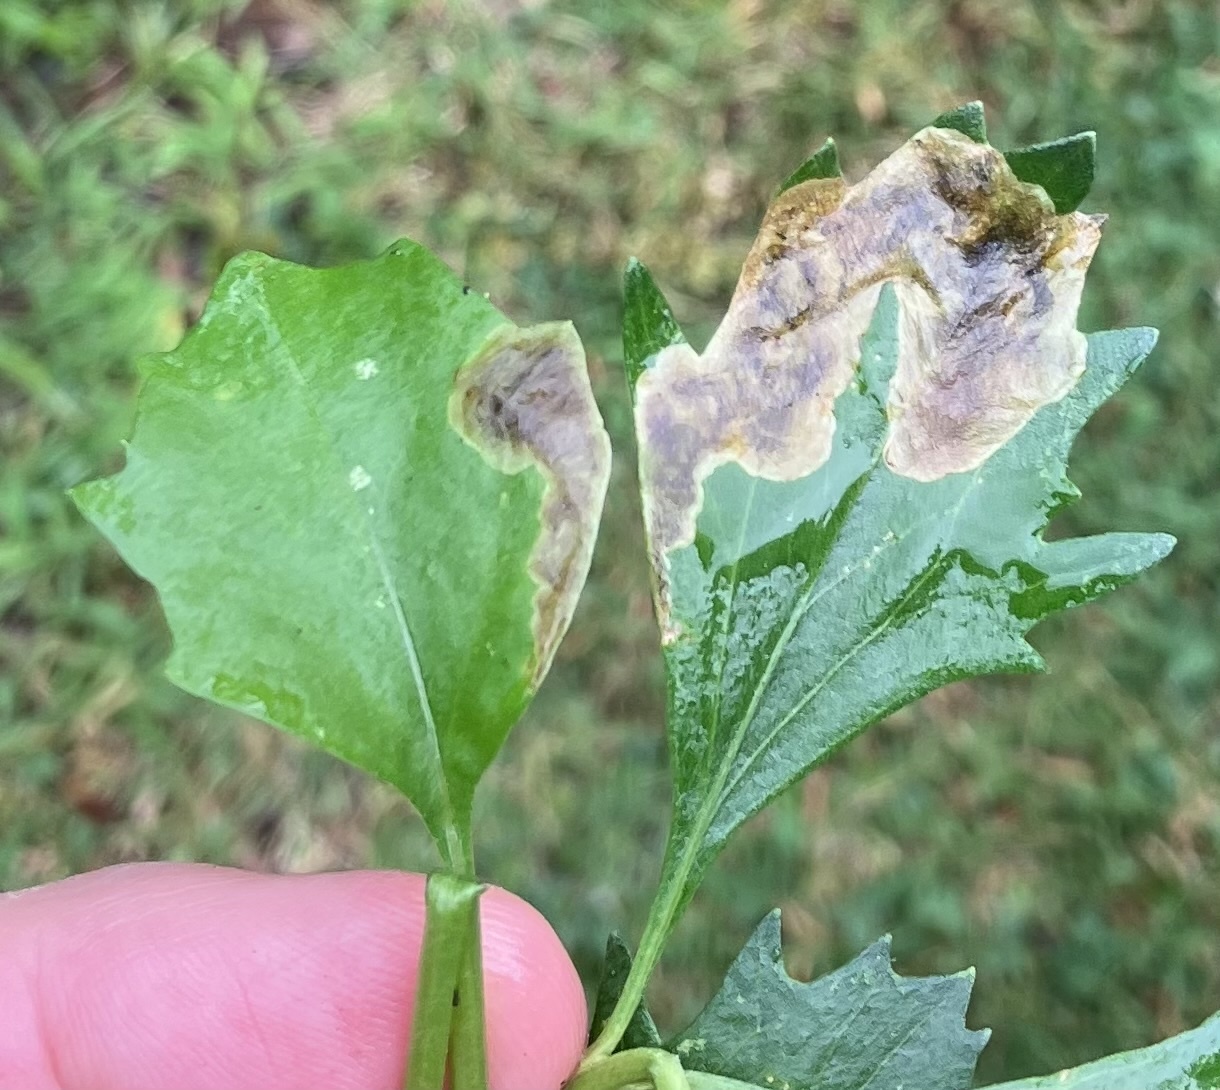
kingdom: Animalia
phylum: Arthropoda
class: Insecta
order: Diptera
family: Agromyzidae
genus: Nemorimyza
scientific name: Nemorimyza posticata
